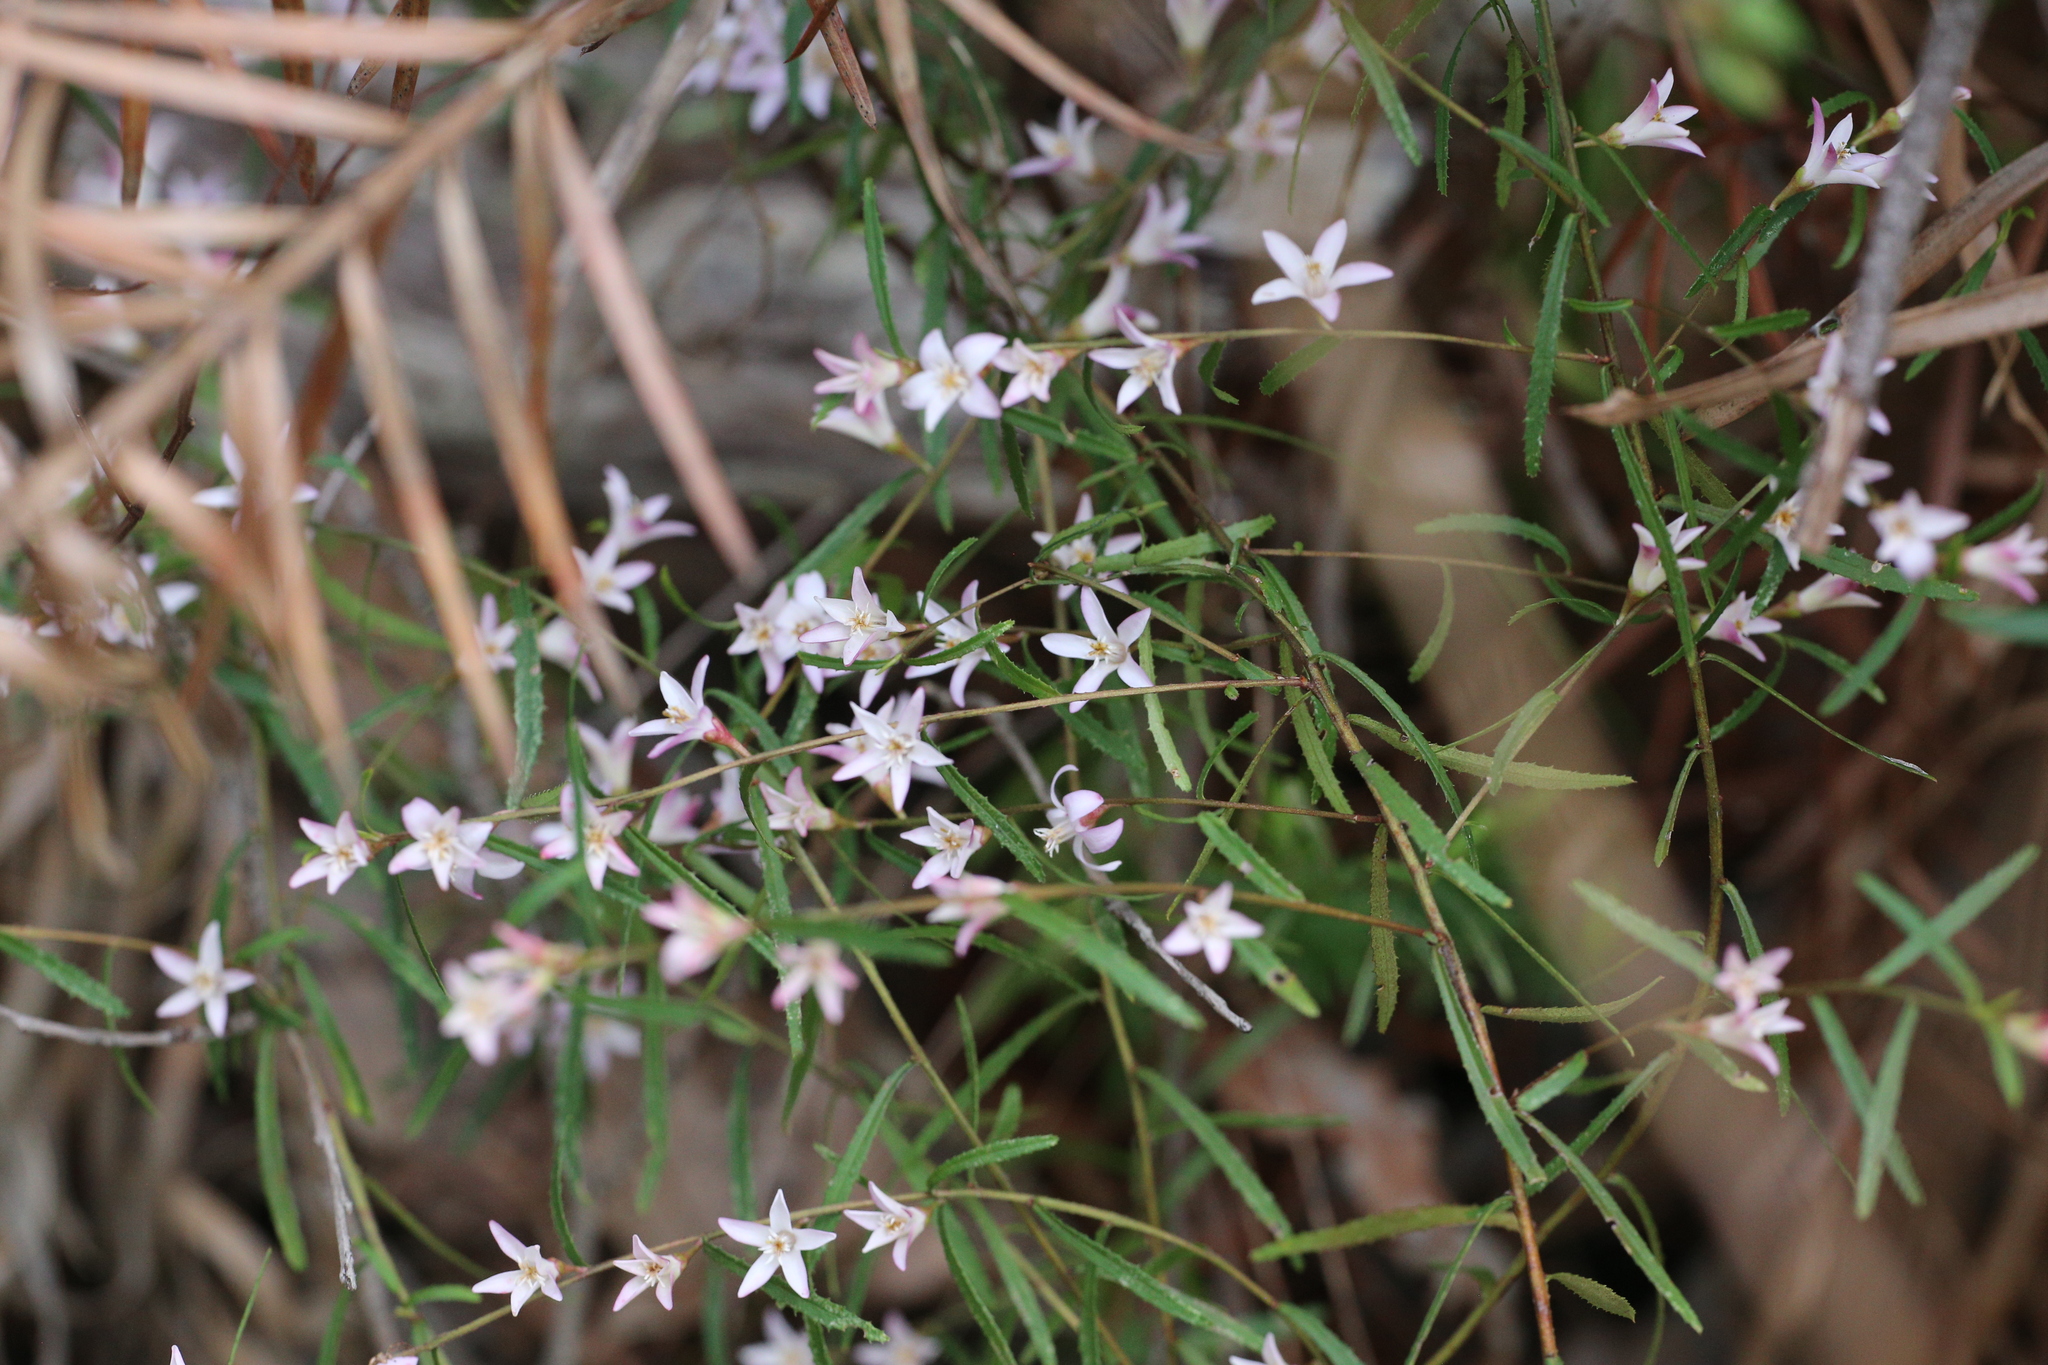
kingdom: Plantae
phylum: Tracheophyta
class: Magnoliopsida
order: Sapindales
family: Rutaceae
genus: Crowea
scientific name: Crowea angustifolia
